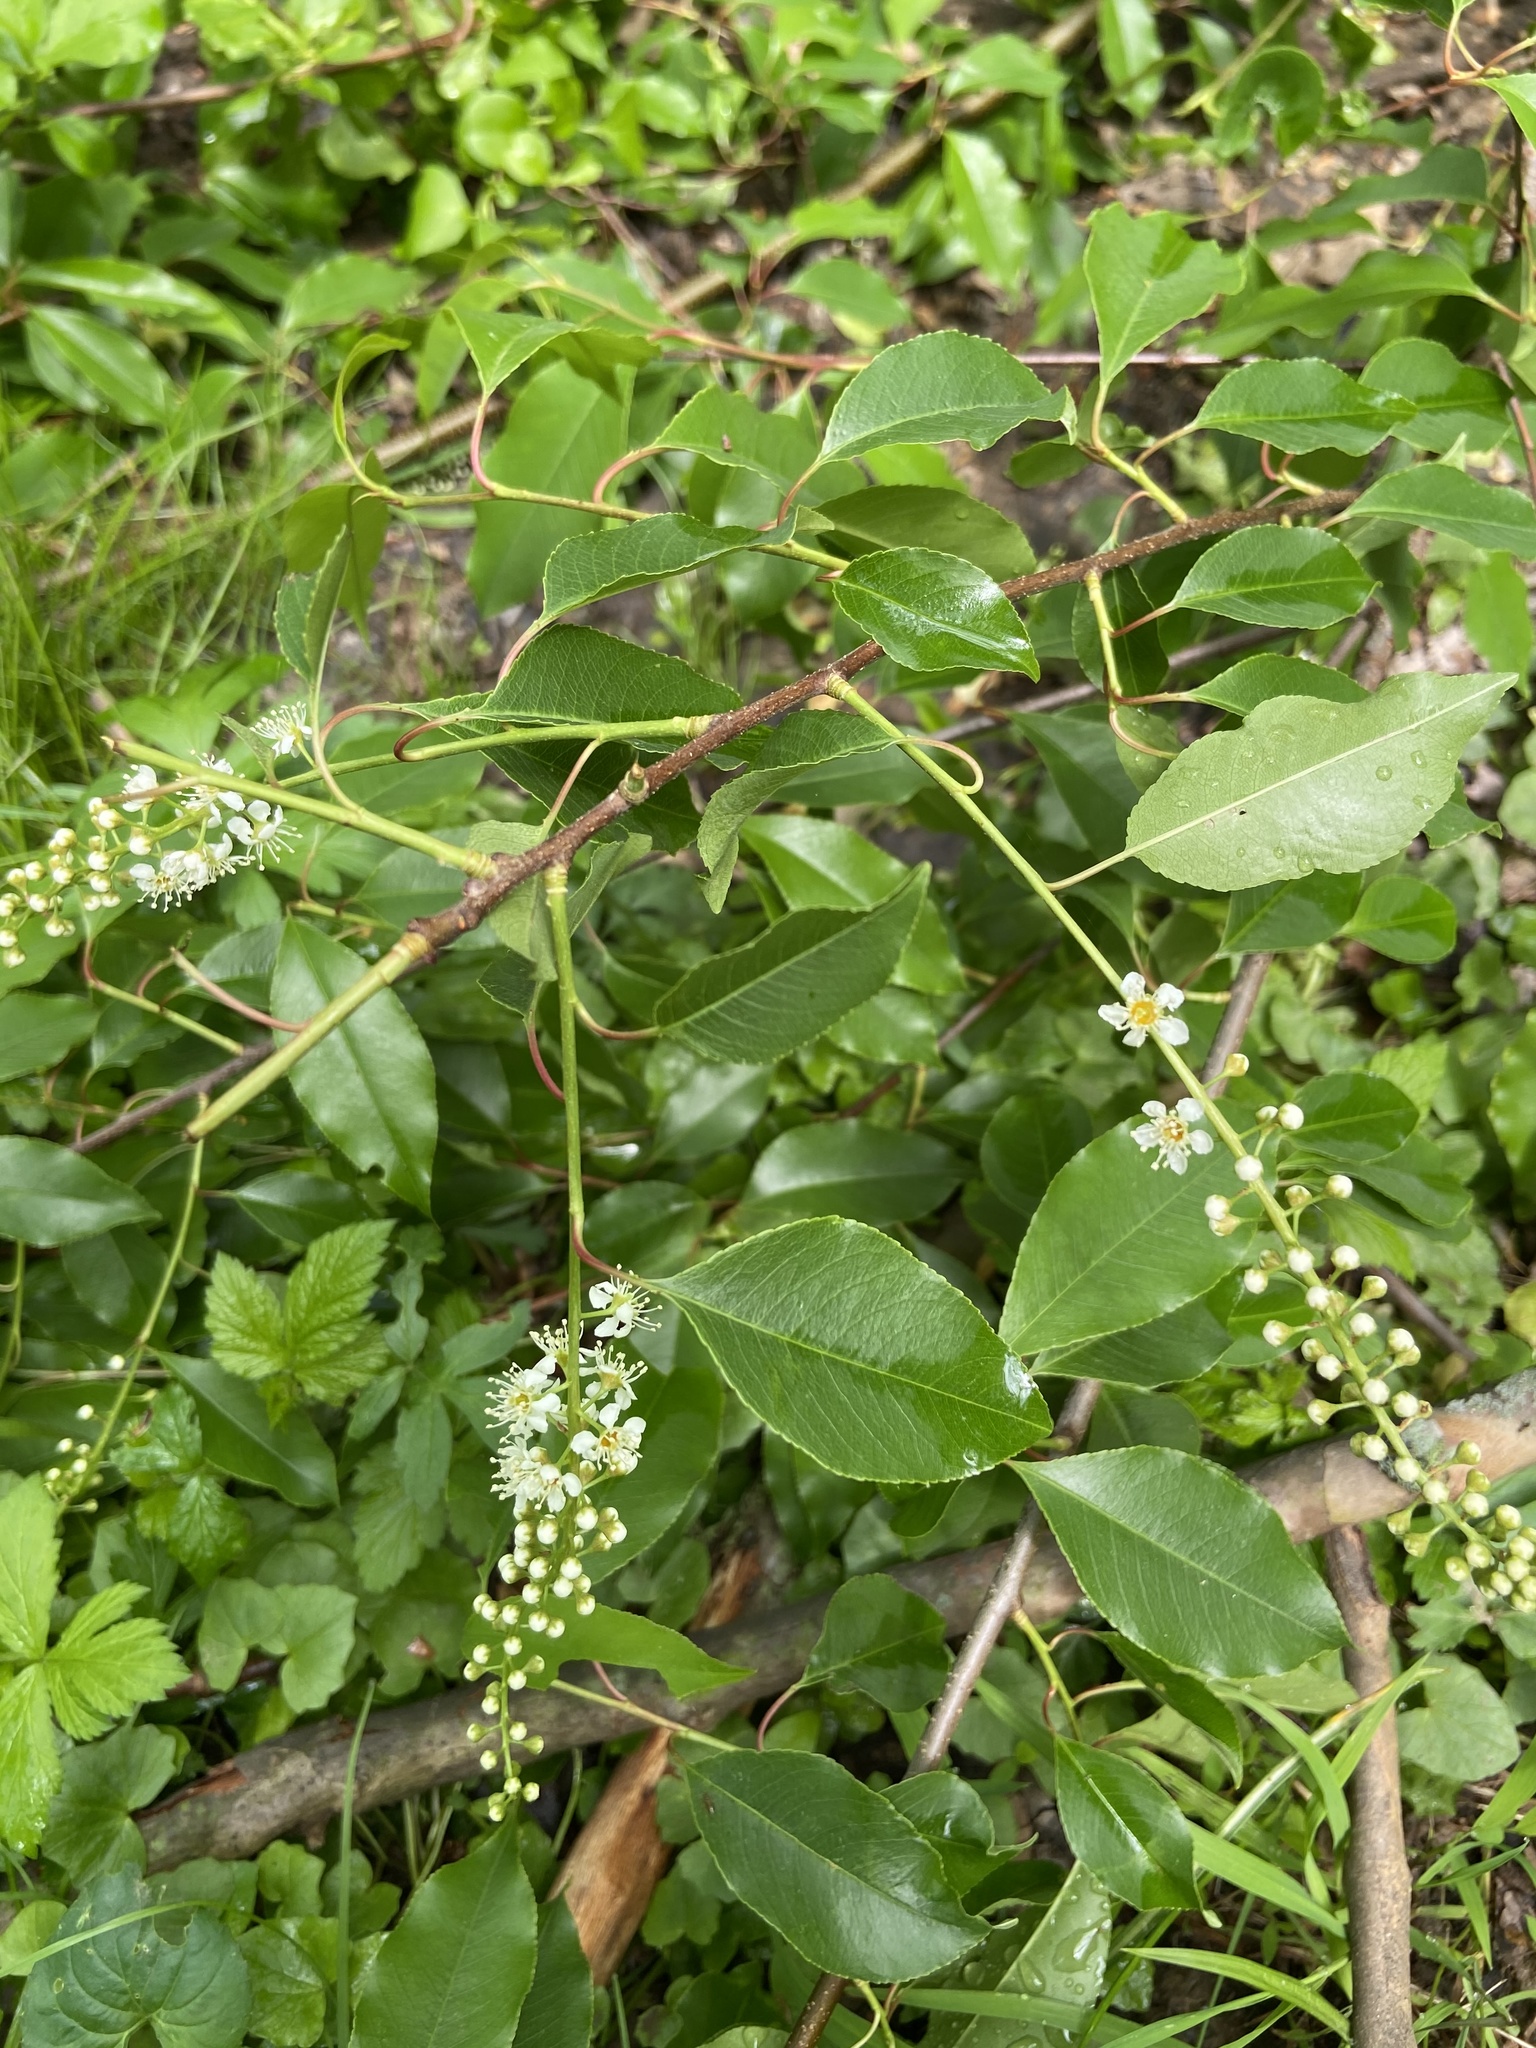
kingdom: Plantae
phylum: Tracheophyta
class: Magnoliopsida
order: Rosales
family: Rosaceae
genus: Prunus
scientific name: Prunus serotina
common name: Black cherry
